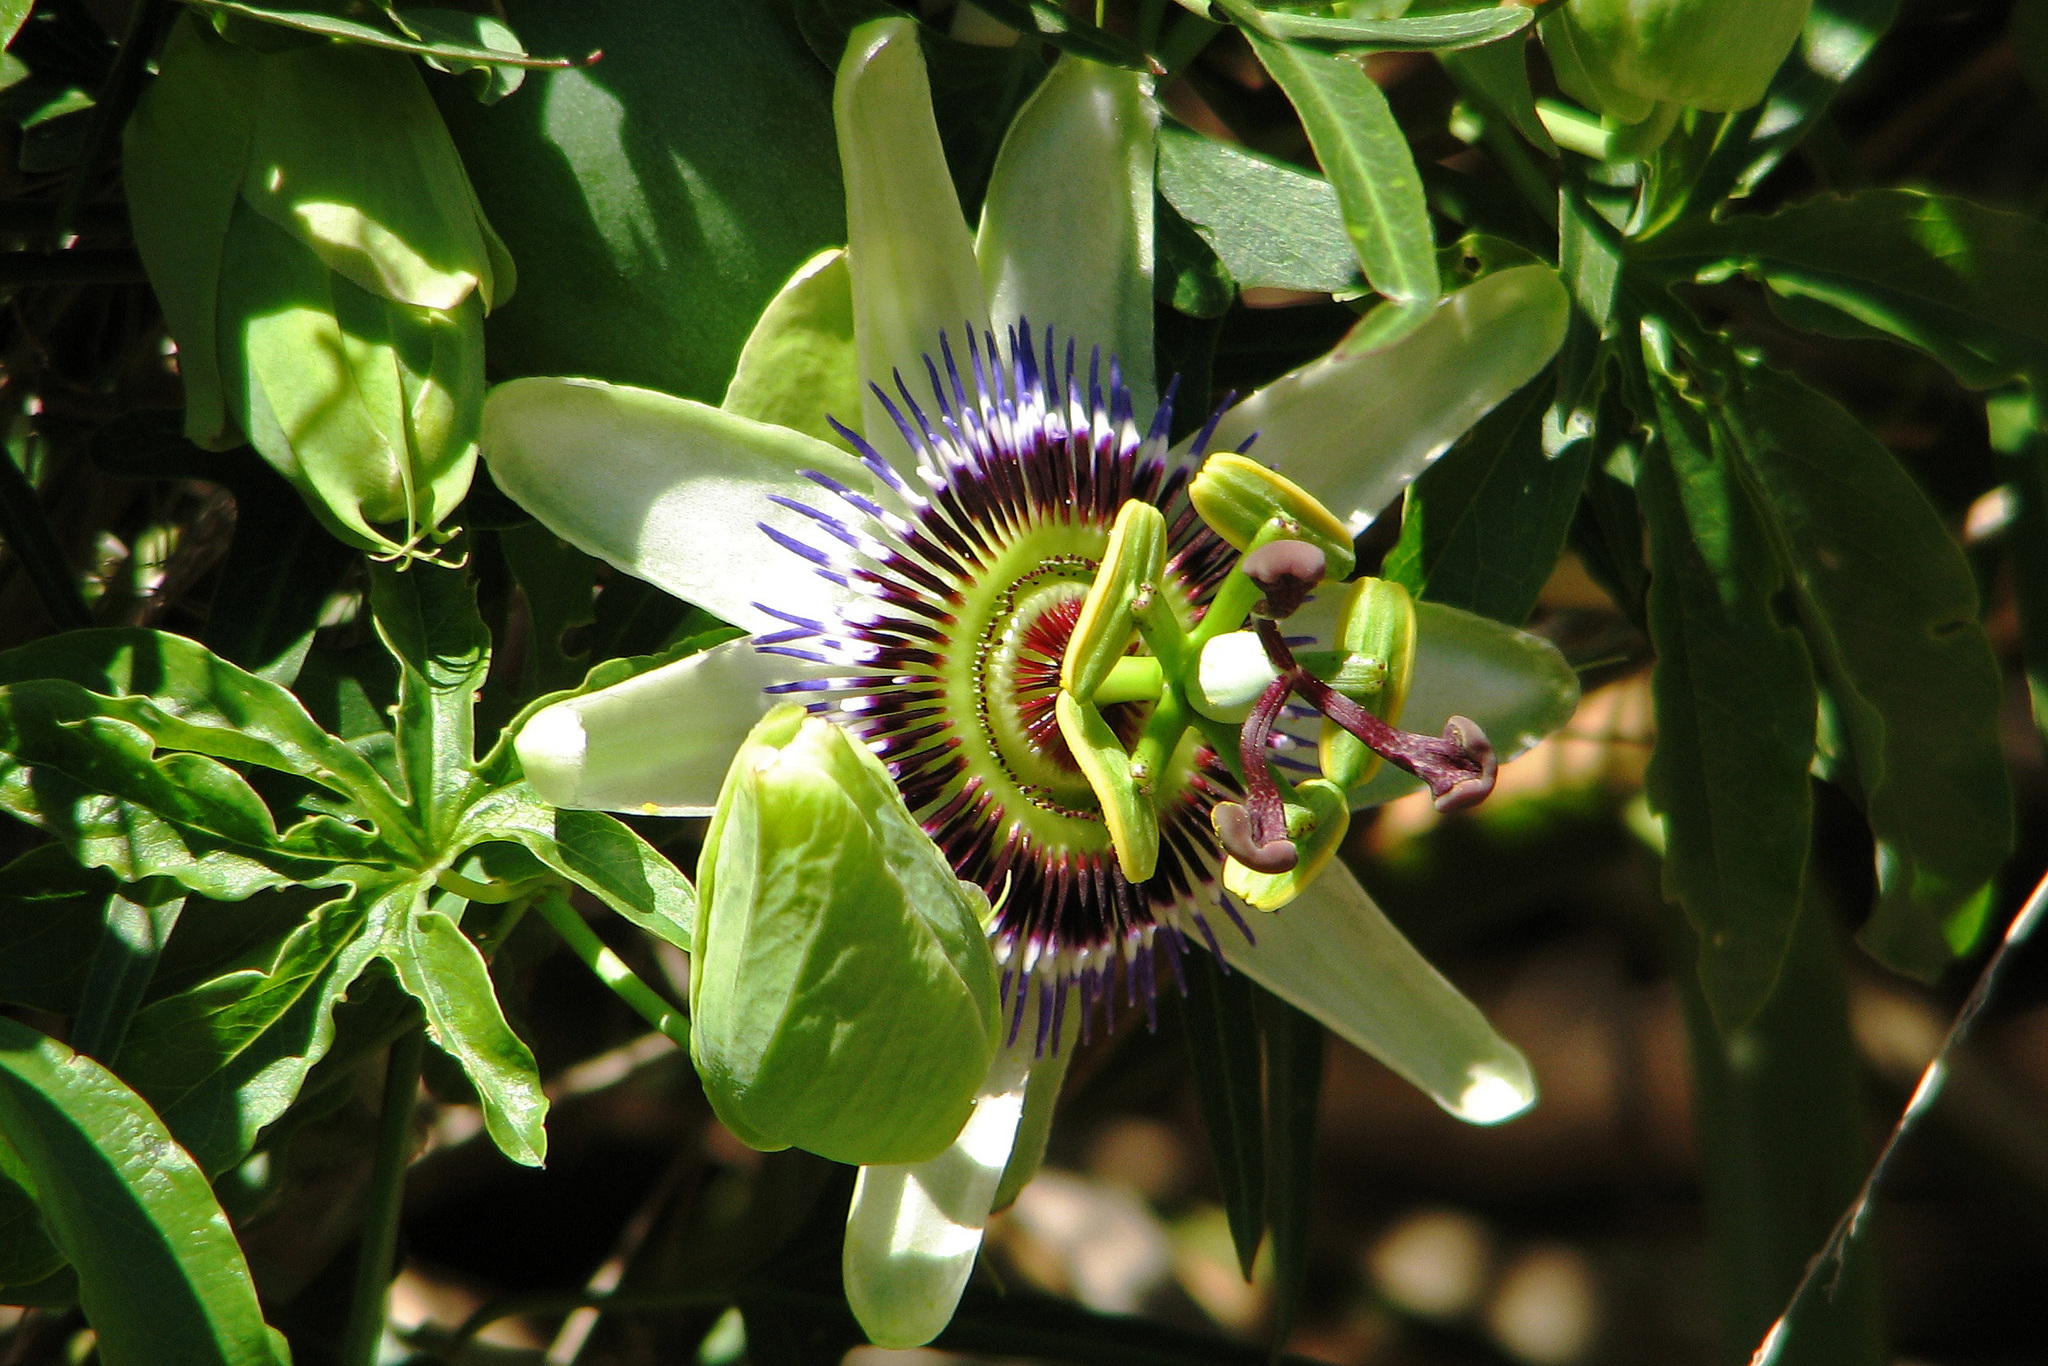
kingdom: Plantae
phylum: Tracheophyta
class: Magnoliopsida
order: Malpighiales
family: Passifloraceae
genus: Passiflora
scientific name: Passiflora caerulea
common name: Blue passionflower
